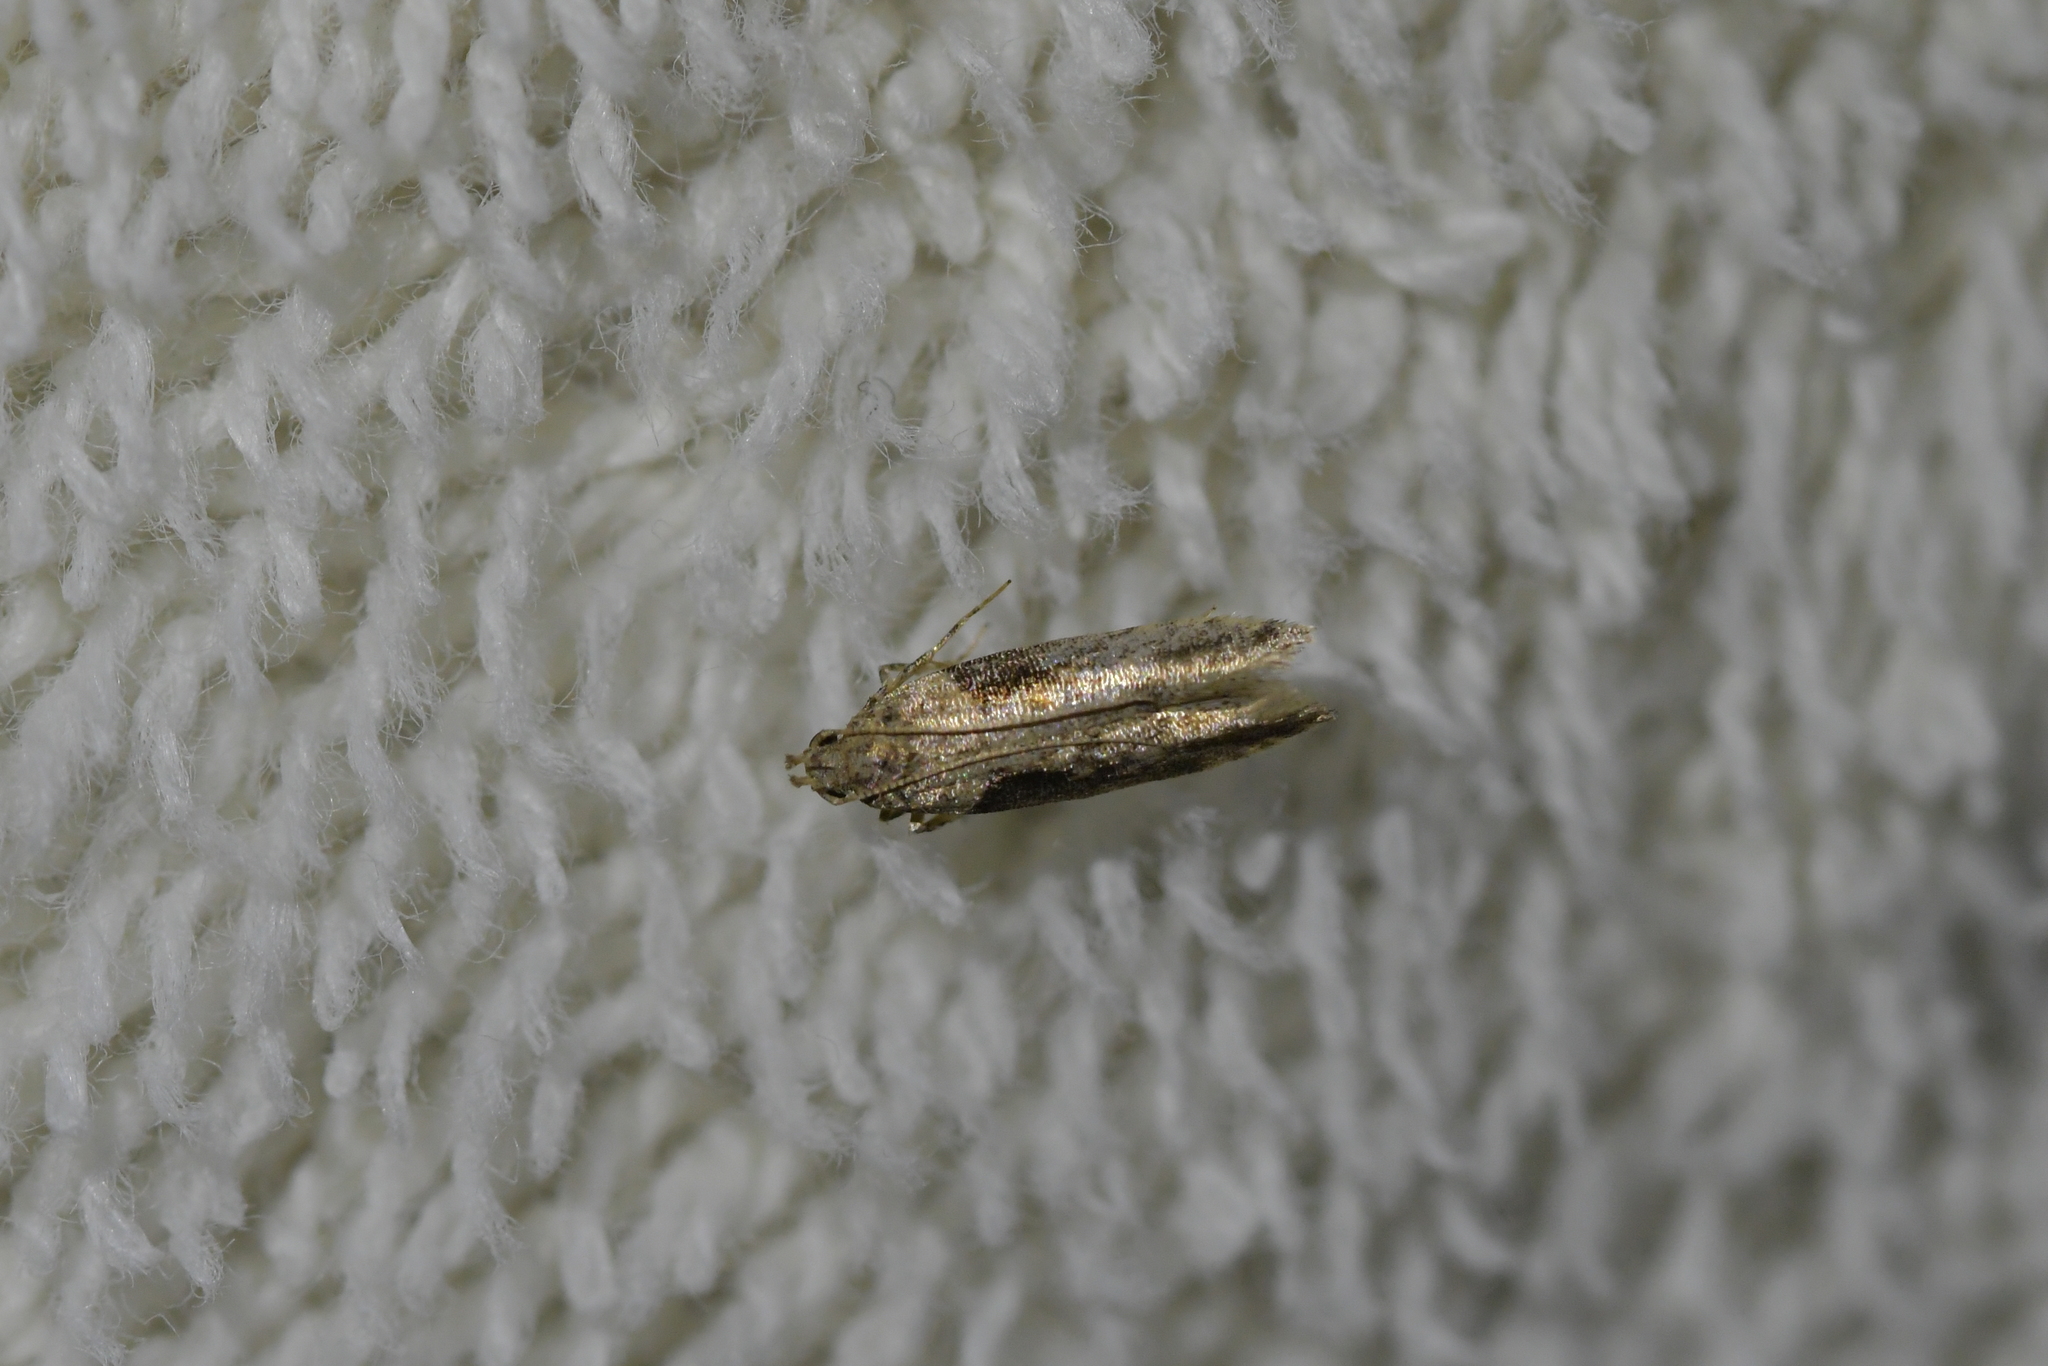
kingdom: Animalia
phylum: Arthropoda
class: Insecta
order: Lepidoptera
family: Gelechiidae
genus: Symmetrischema
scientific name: Symmetrischema tangolias
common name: Moth
